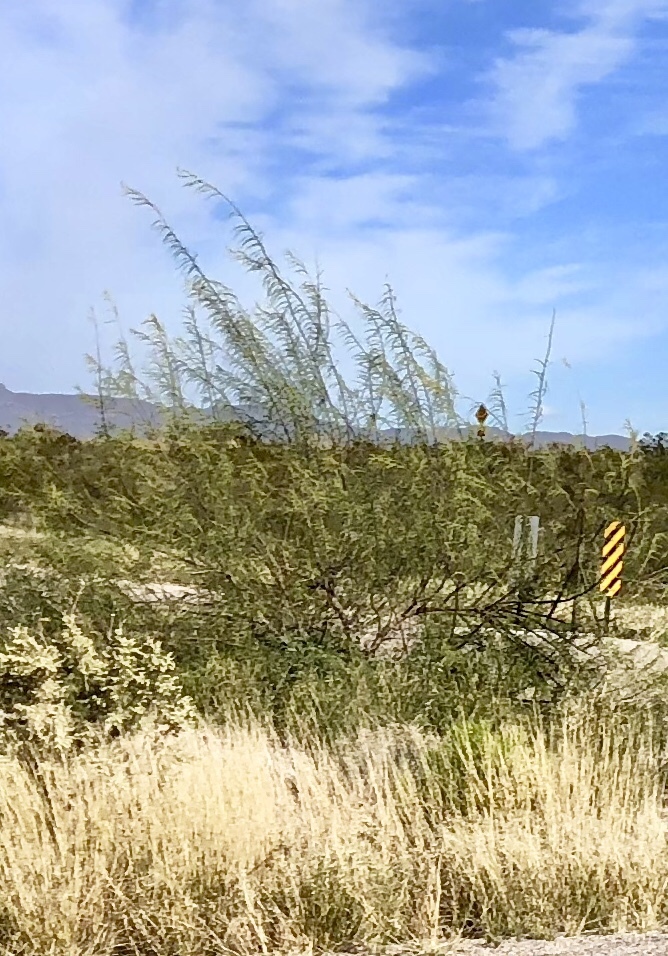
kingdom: Plantae
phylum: Tracheophyta
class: Magnoliopsida
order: Lamiales
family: Bignoniaceae
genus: Chilopsis
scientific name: Chilopsis linearis
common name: Desert-willow
